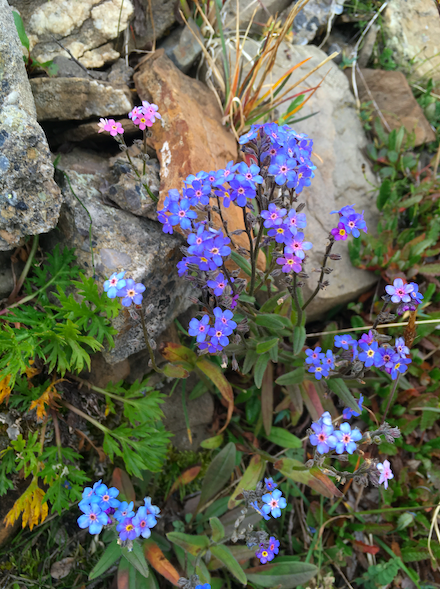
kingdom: Plantae
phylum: Tracheophyta
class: Magnoliopsida
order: Boraginales
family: Boraginaceae
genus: Myosotis
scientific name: Myosotis asiatica
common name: Asian forget-me-not
